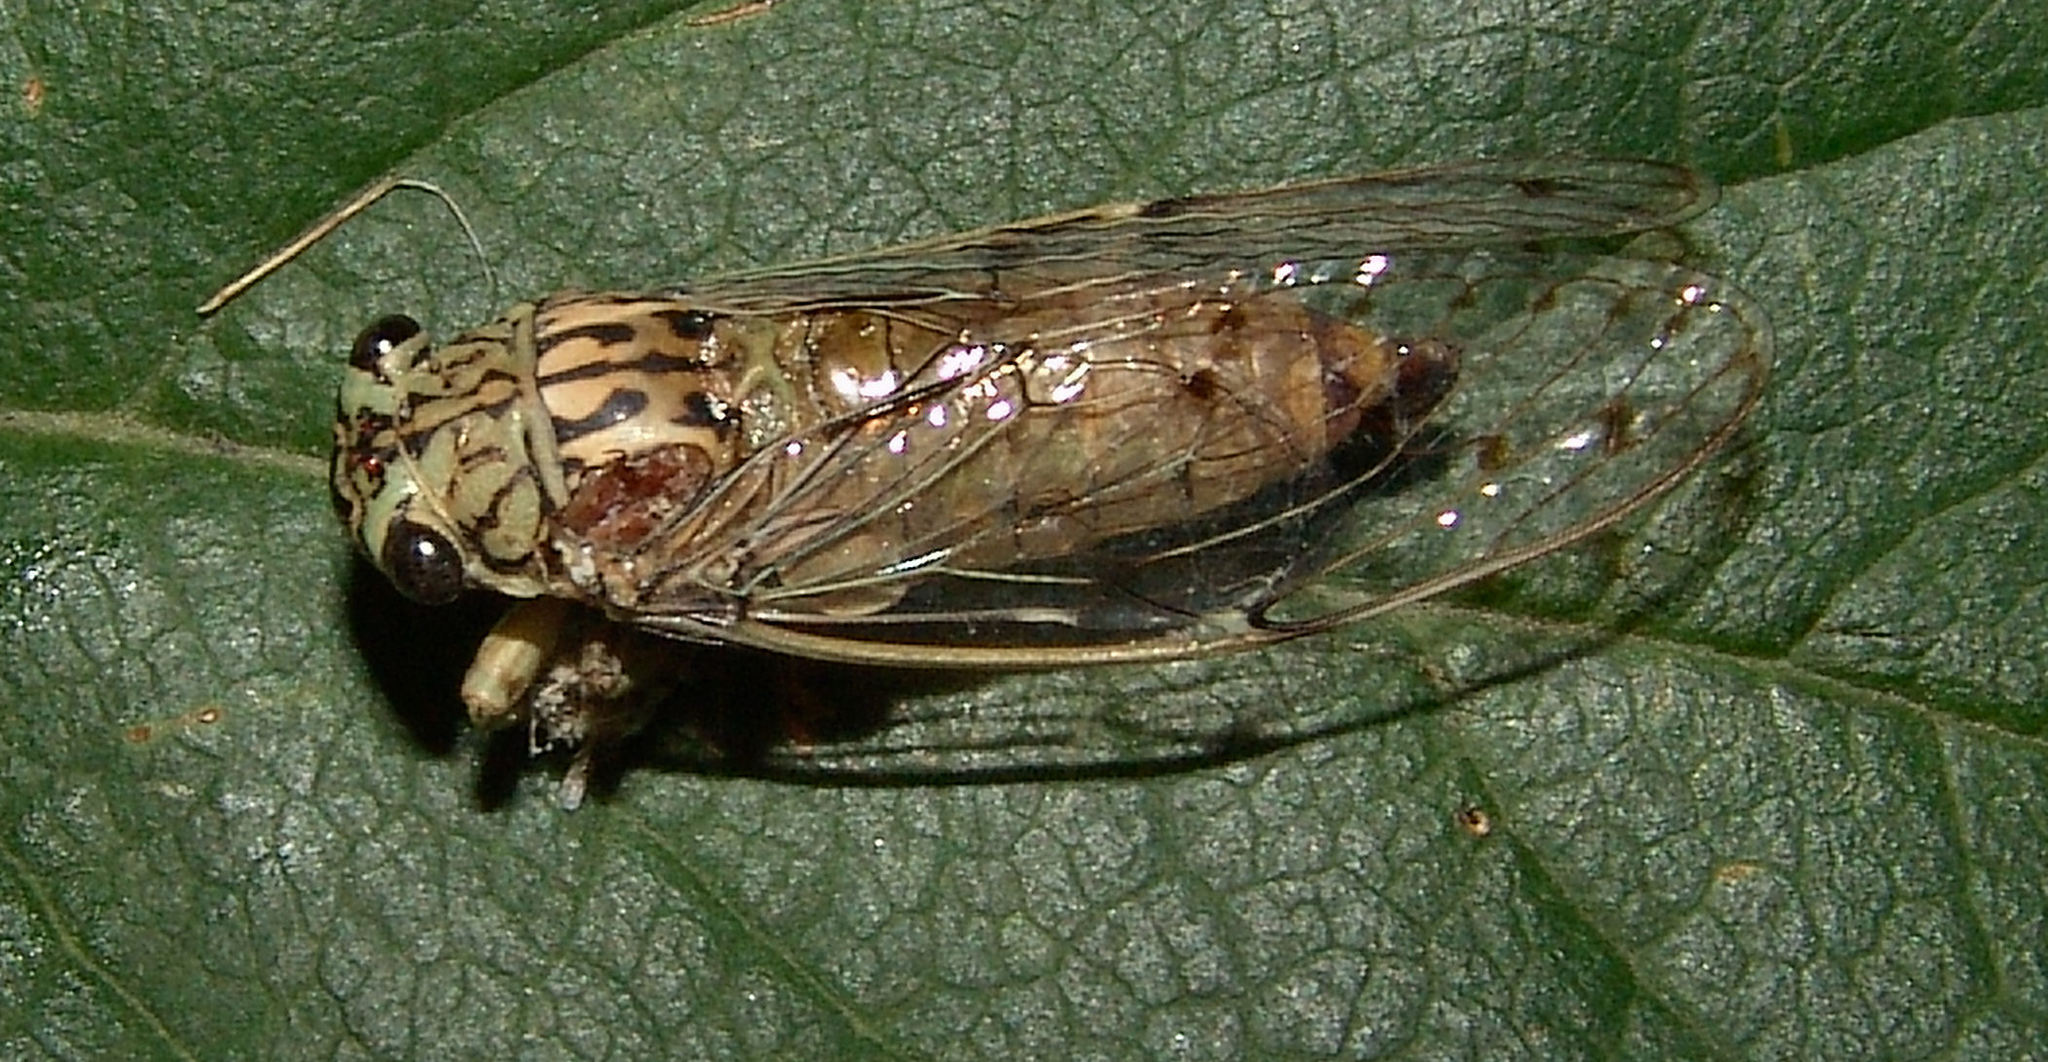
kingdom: Animalia
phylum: Arthropoda
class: Insecta
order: Hemiptera
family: Cicadidae
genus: Neocicada
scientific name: Neocicada hieroglyphica
